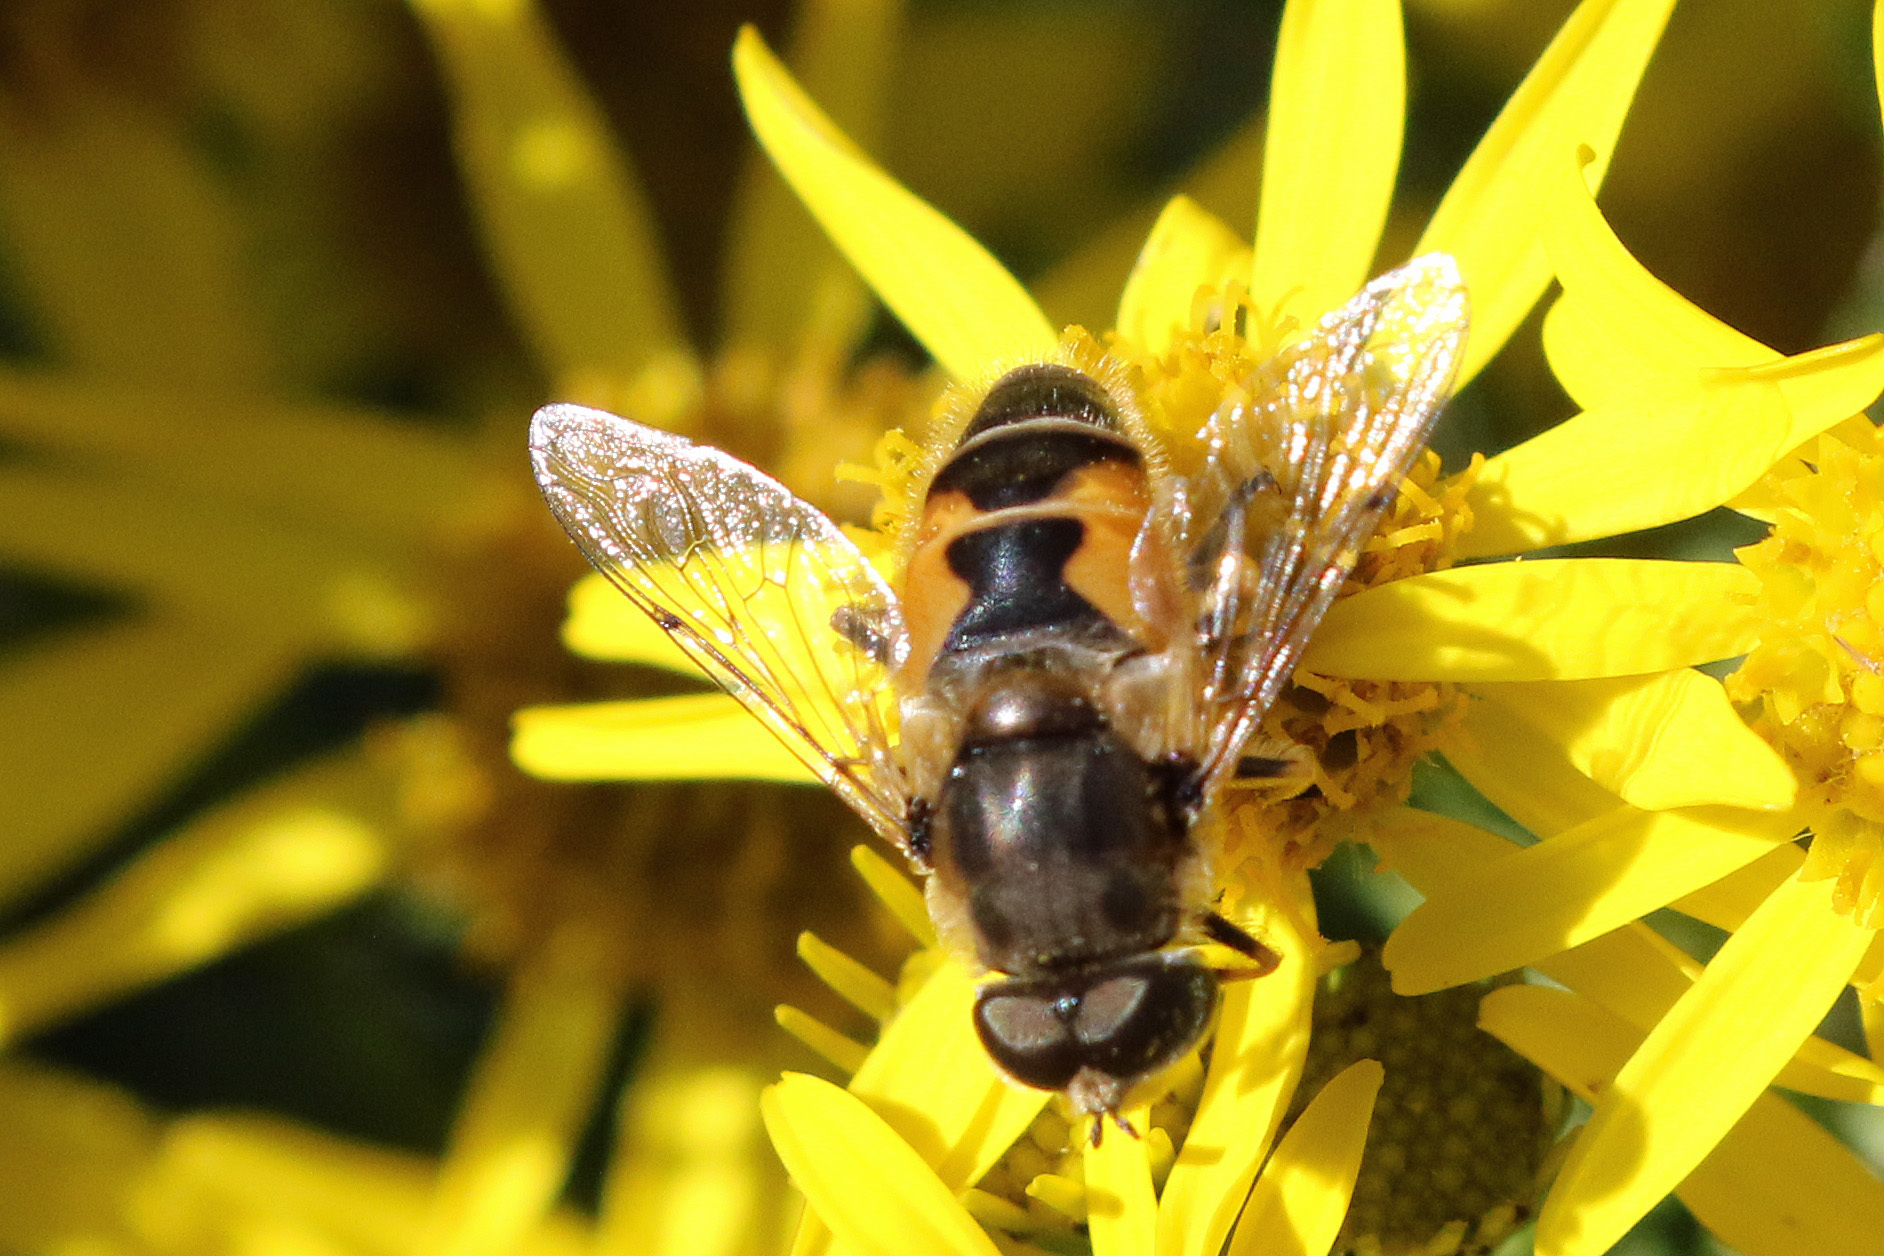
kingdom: Animalia
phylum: Arthropoda
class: Insecta
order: Diptera
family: Syrphidae
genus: Eristalis
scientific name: Eristalis arbustorum
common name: Hover fly
